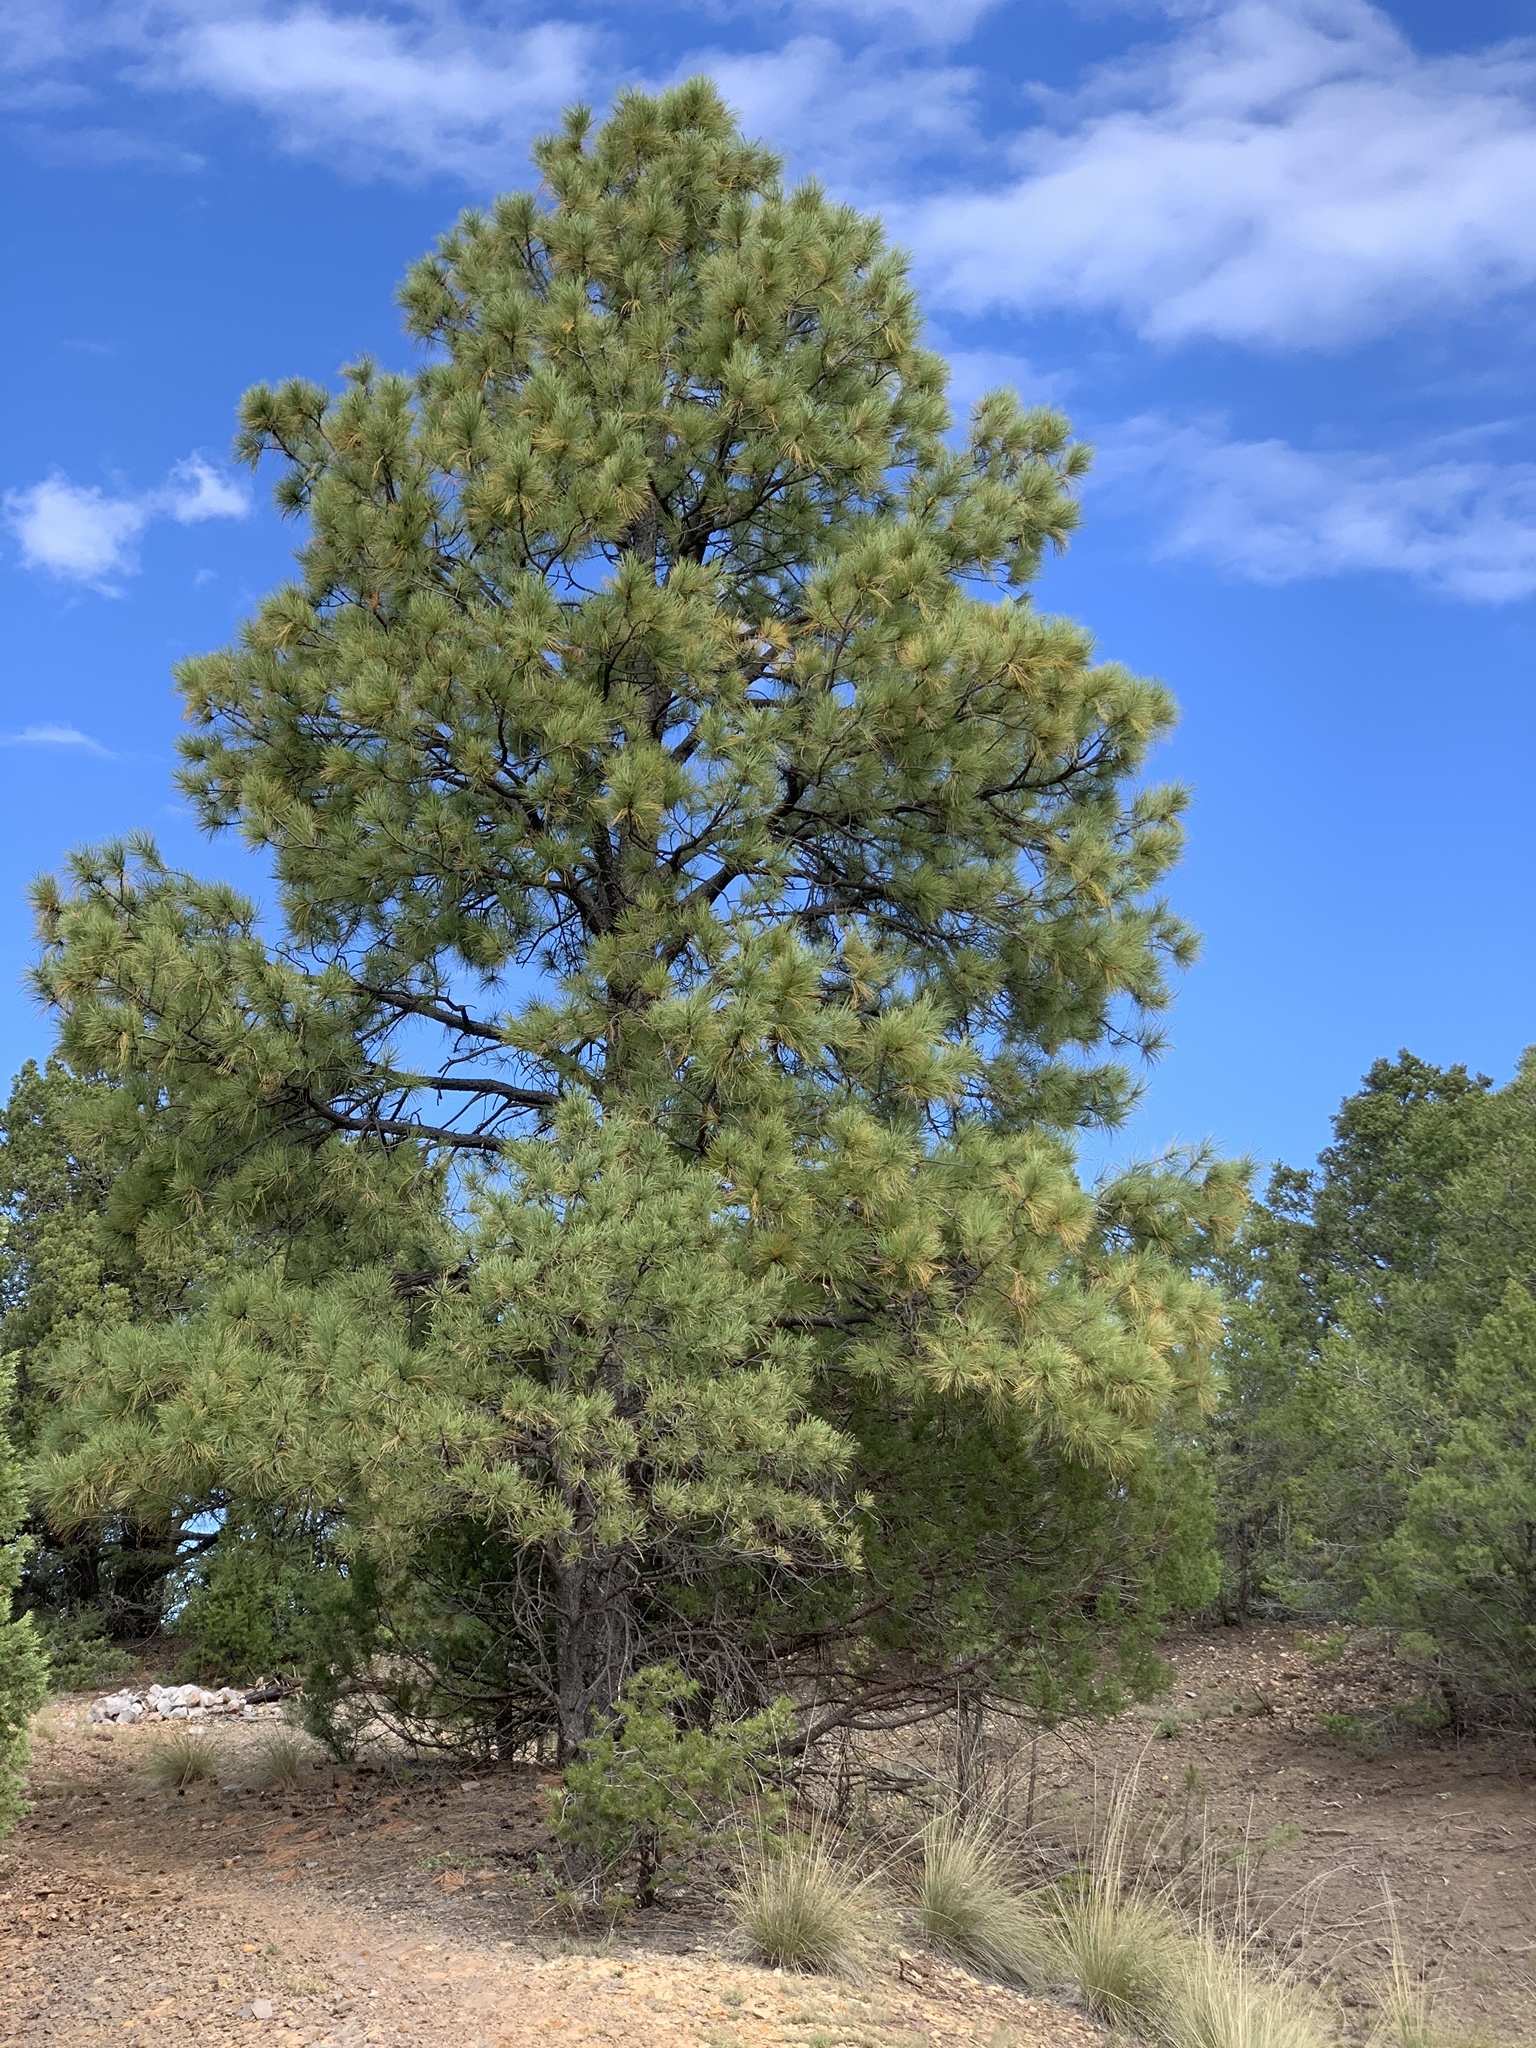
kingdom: Plantae
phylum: Tracheophyta
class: Pinopsida
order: Pinales
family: Pinaceae
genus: Pinus
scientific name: Pinus ponderosa
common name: Western yellow-pine
